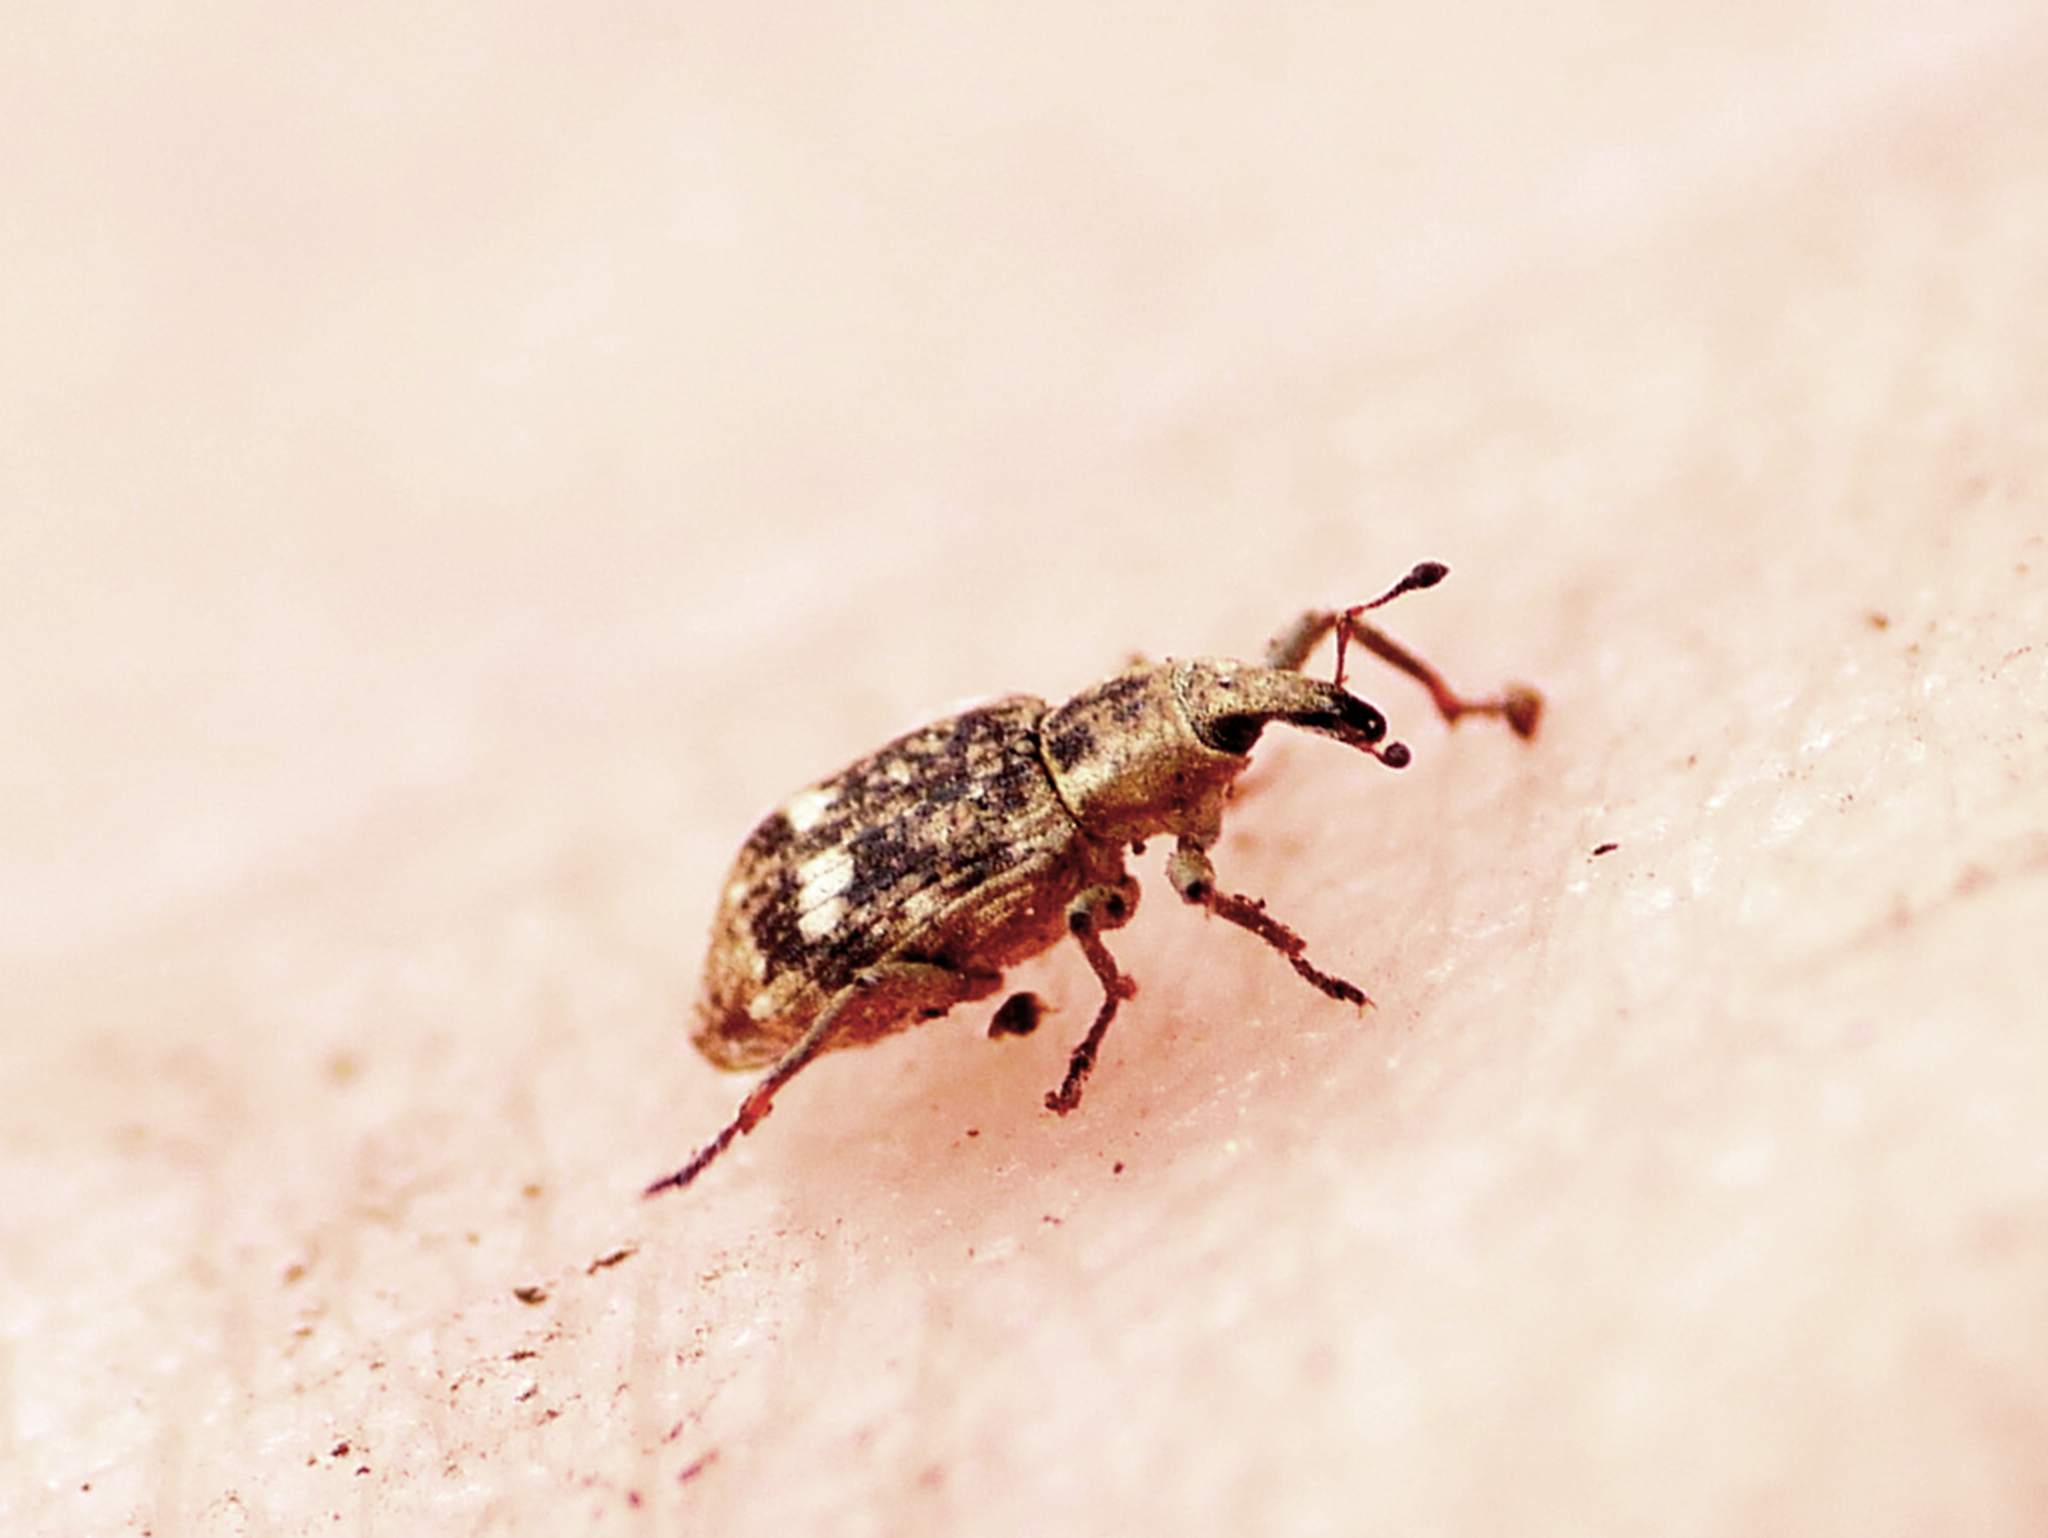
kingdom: Animalia
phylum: Arthropoda
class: Insecta
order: Coleoptera
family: Curculionidae
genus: Bagous
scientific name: Bagous alismatis
